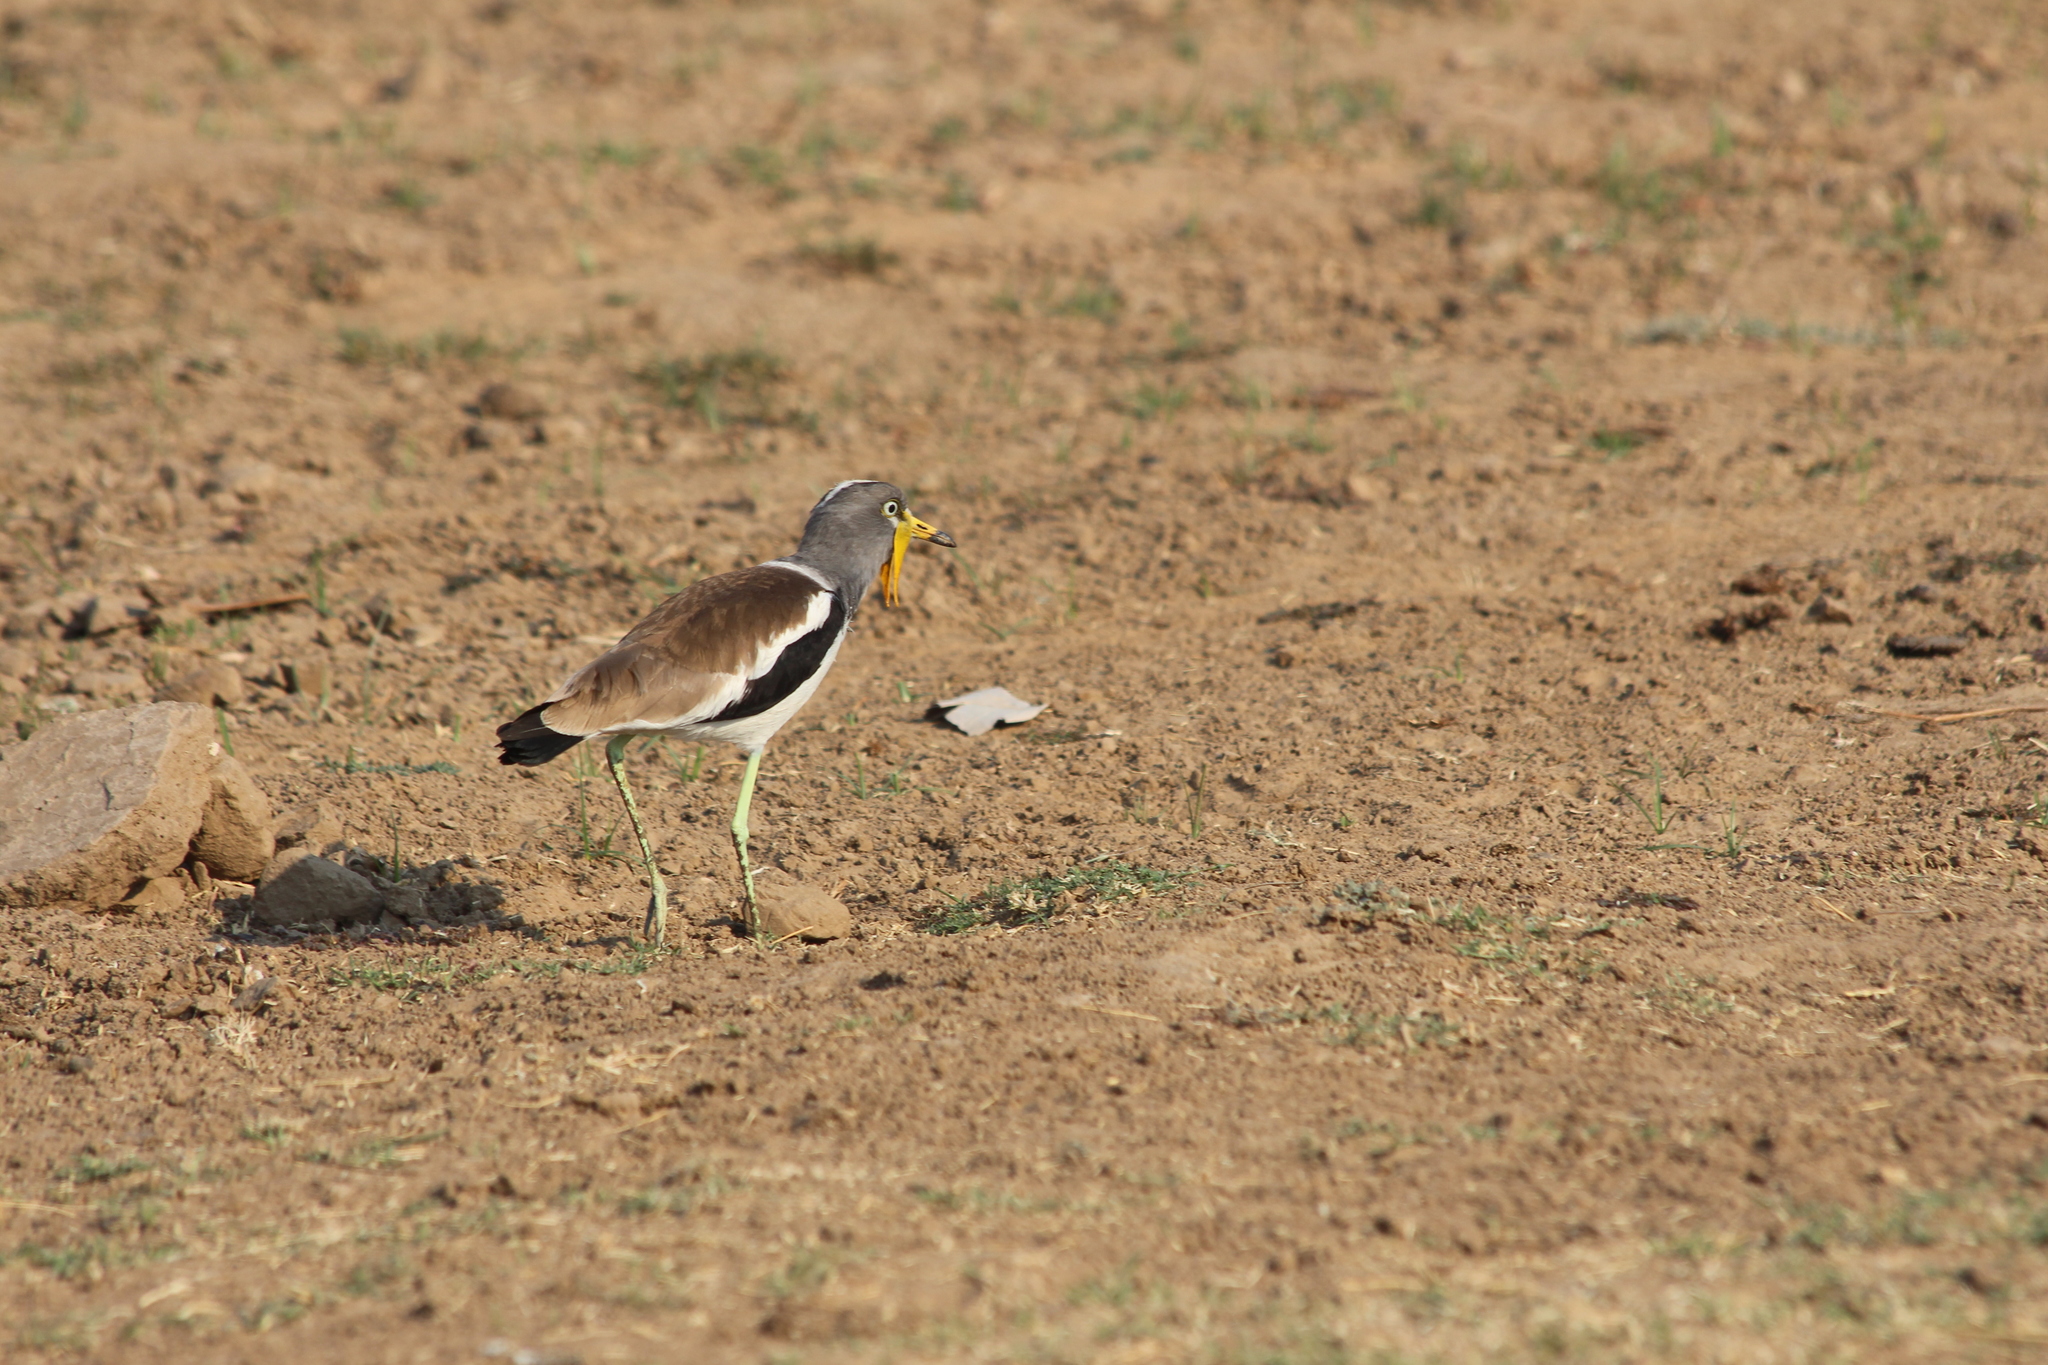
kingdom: Animalia
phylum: Chordata
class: Aves
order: Charadriiformes
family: Charadriidae
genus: Vanellus
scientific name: Vanellus albiceps
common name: White-crowned lapwing
